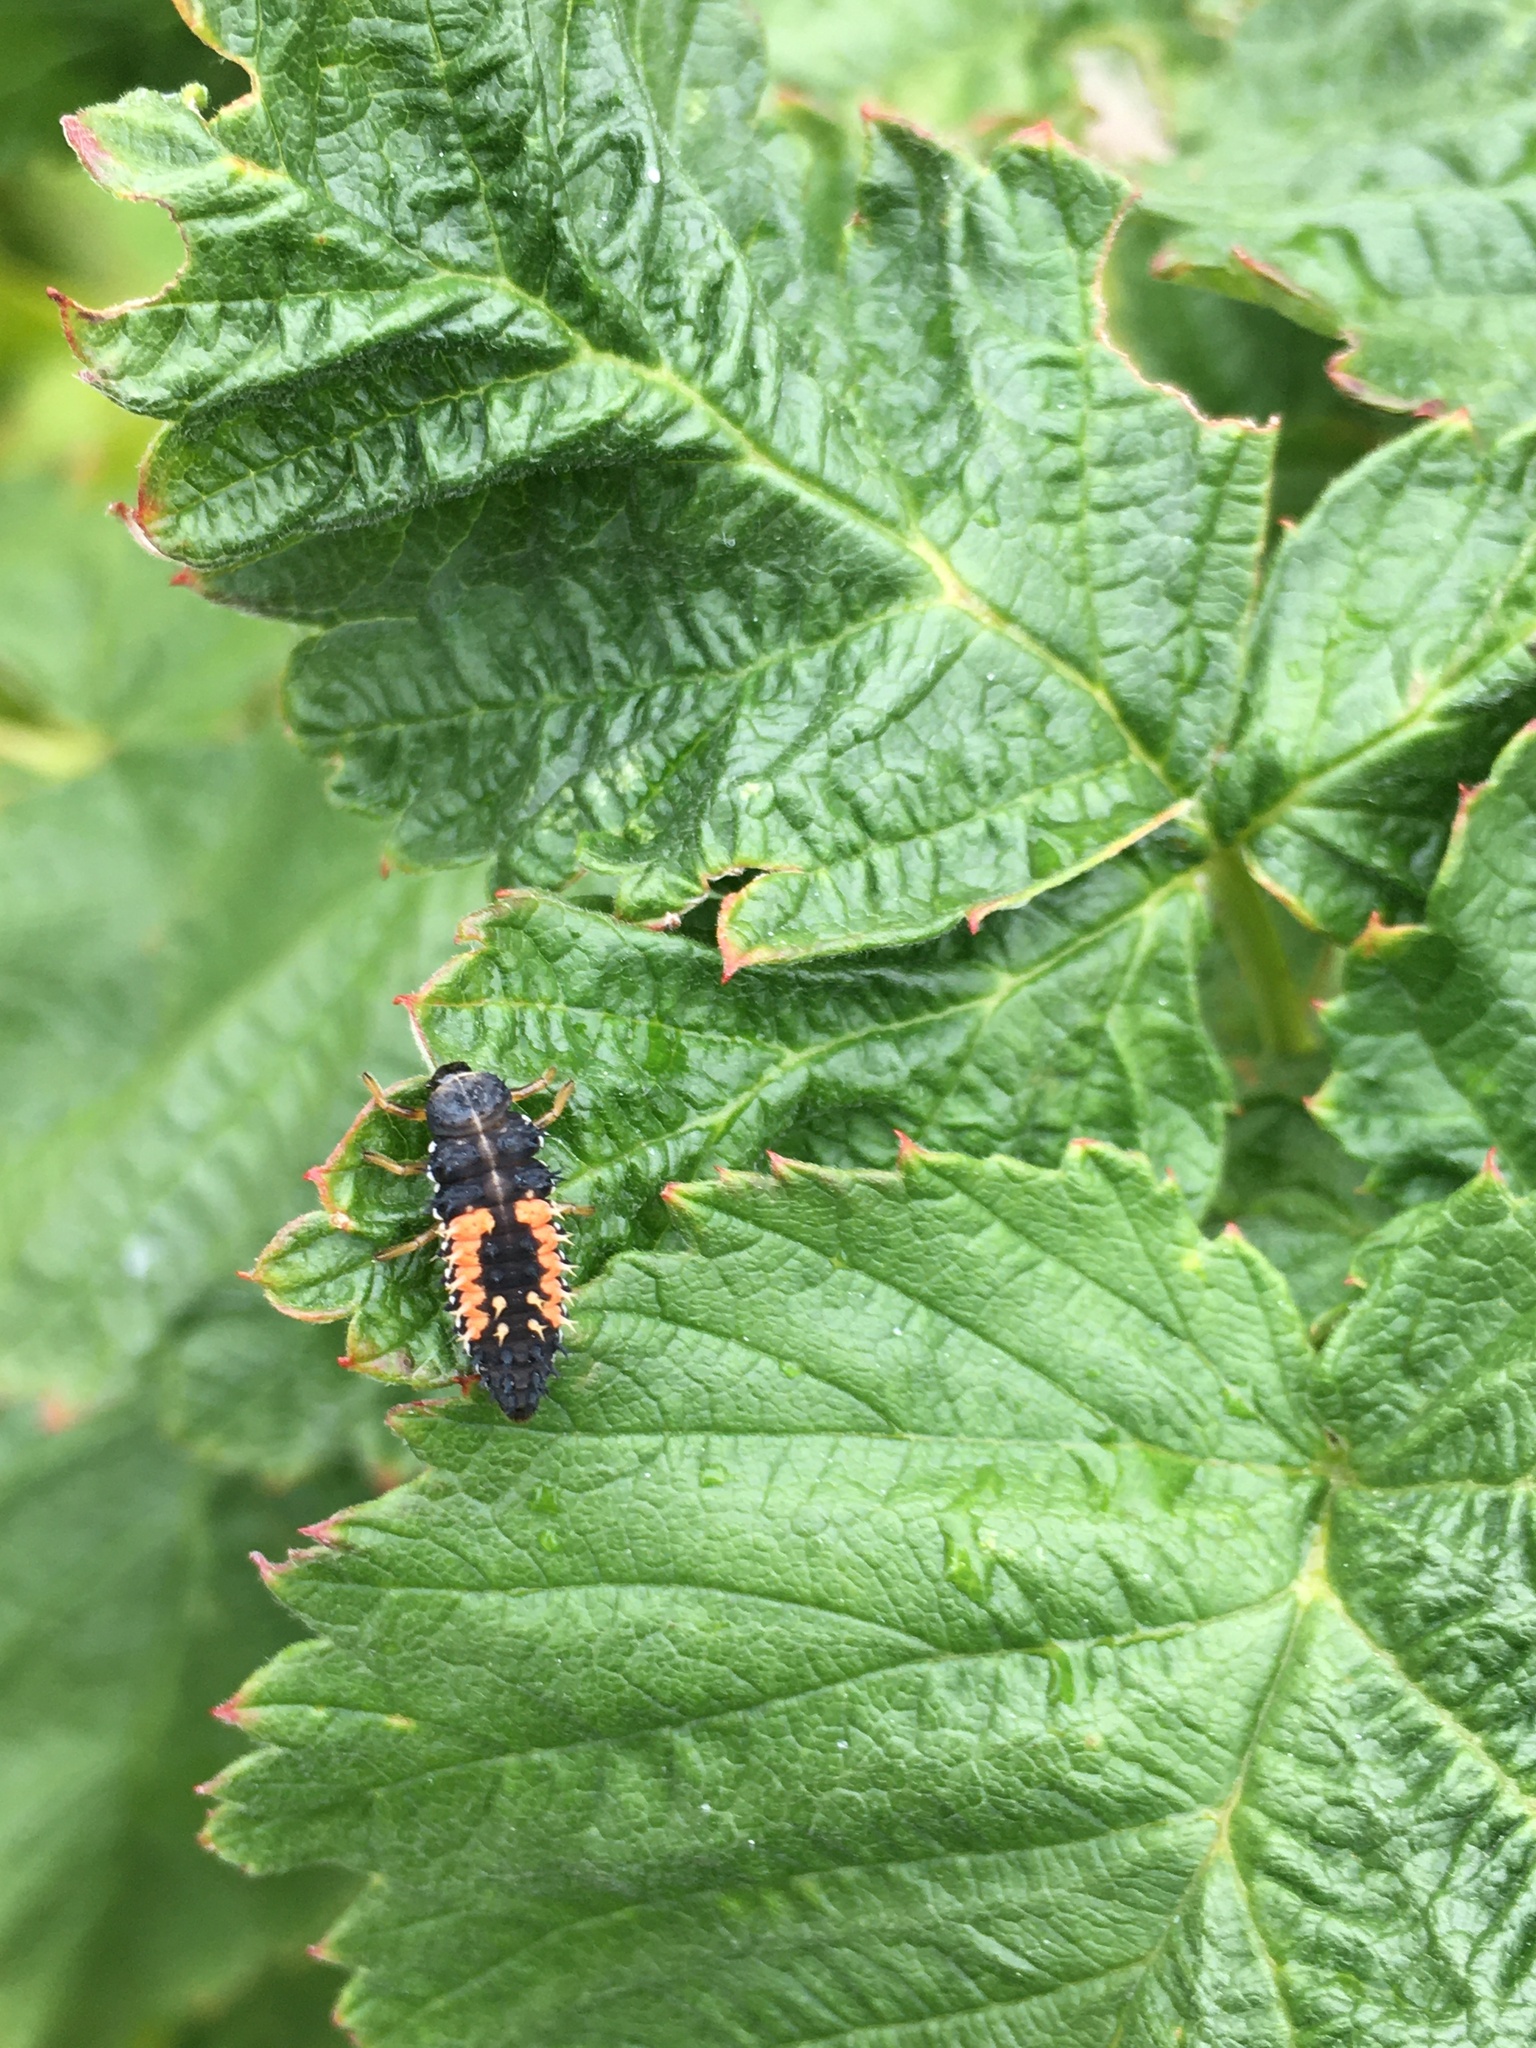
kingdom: Animalia
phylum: Arthropoda
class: Insecta
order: Coleoptera
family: Coccinellidae
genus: Harmonia
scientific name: Harmonia axyridis
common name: Harlequin ladybird
